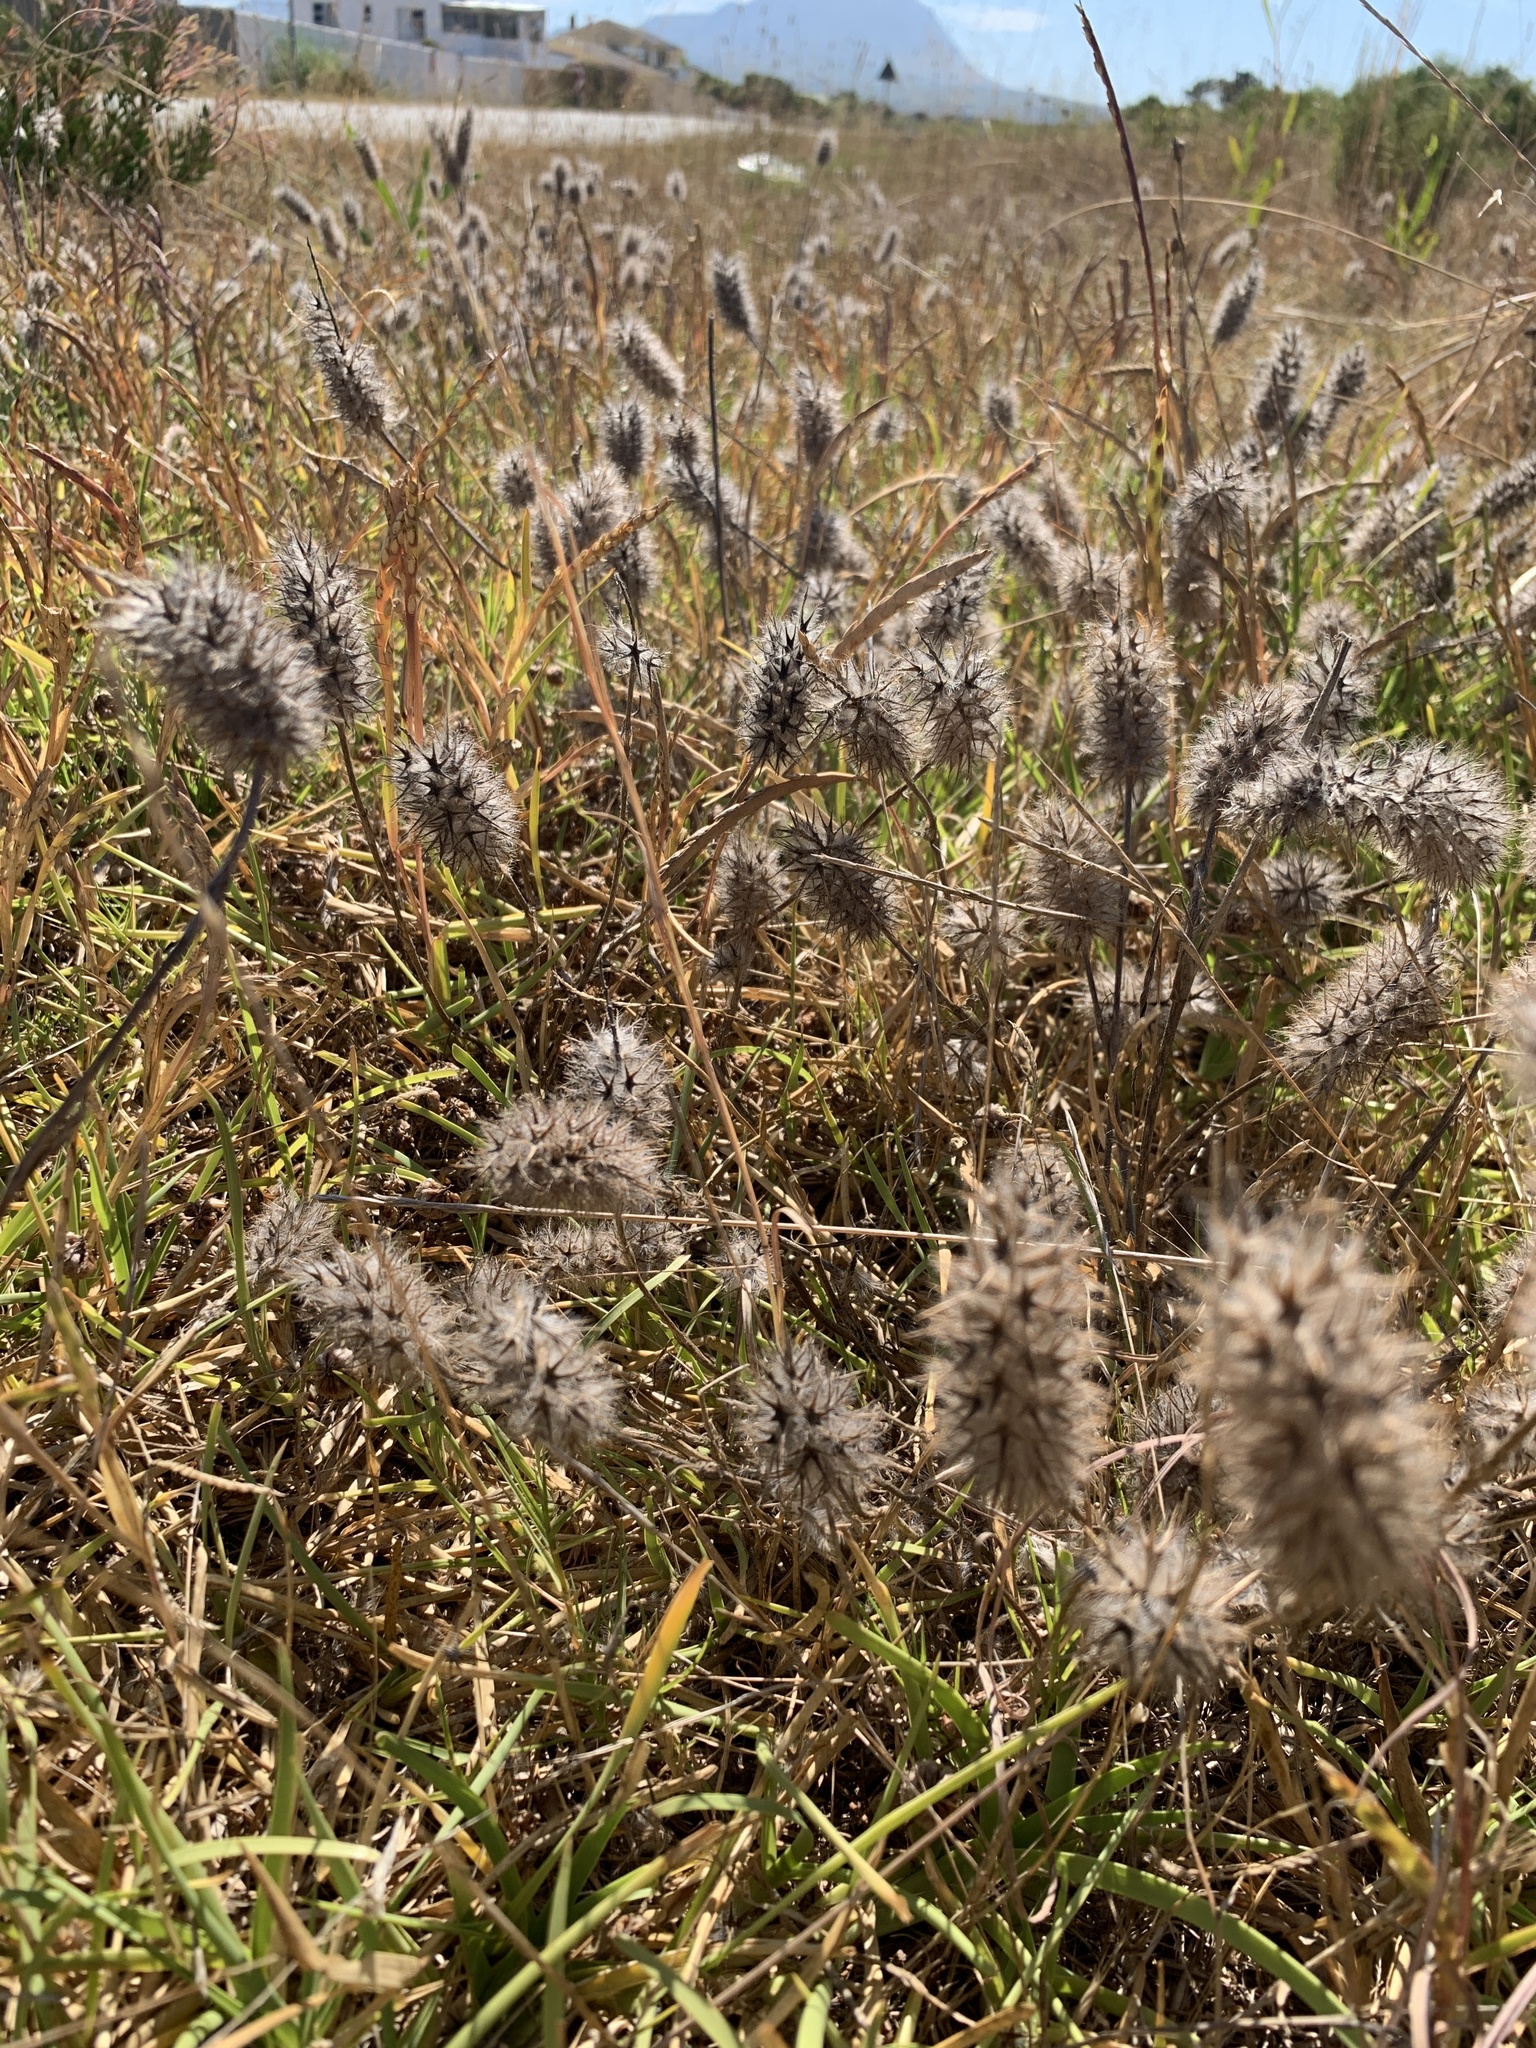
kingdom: Plantae
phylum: Tracheophyta
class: Magnoliopsida
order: Fabales
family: Fabaceae
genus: Trifolium
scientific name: Trifolium angustifolium
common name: Narrow clover
